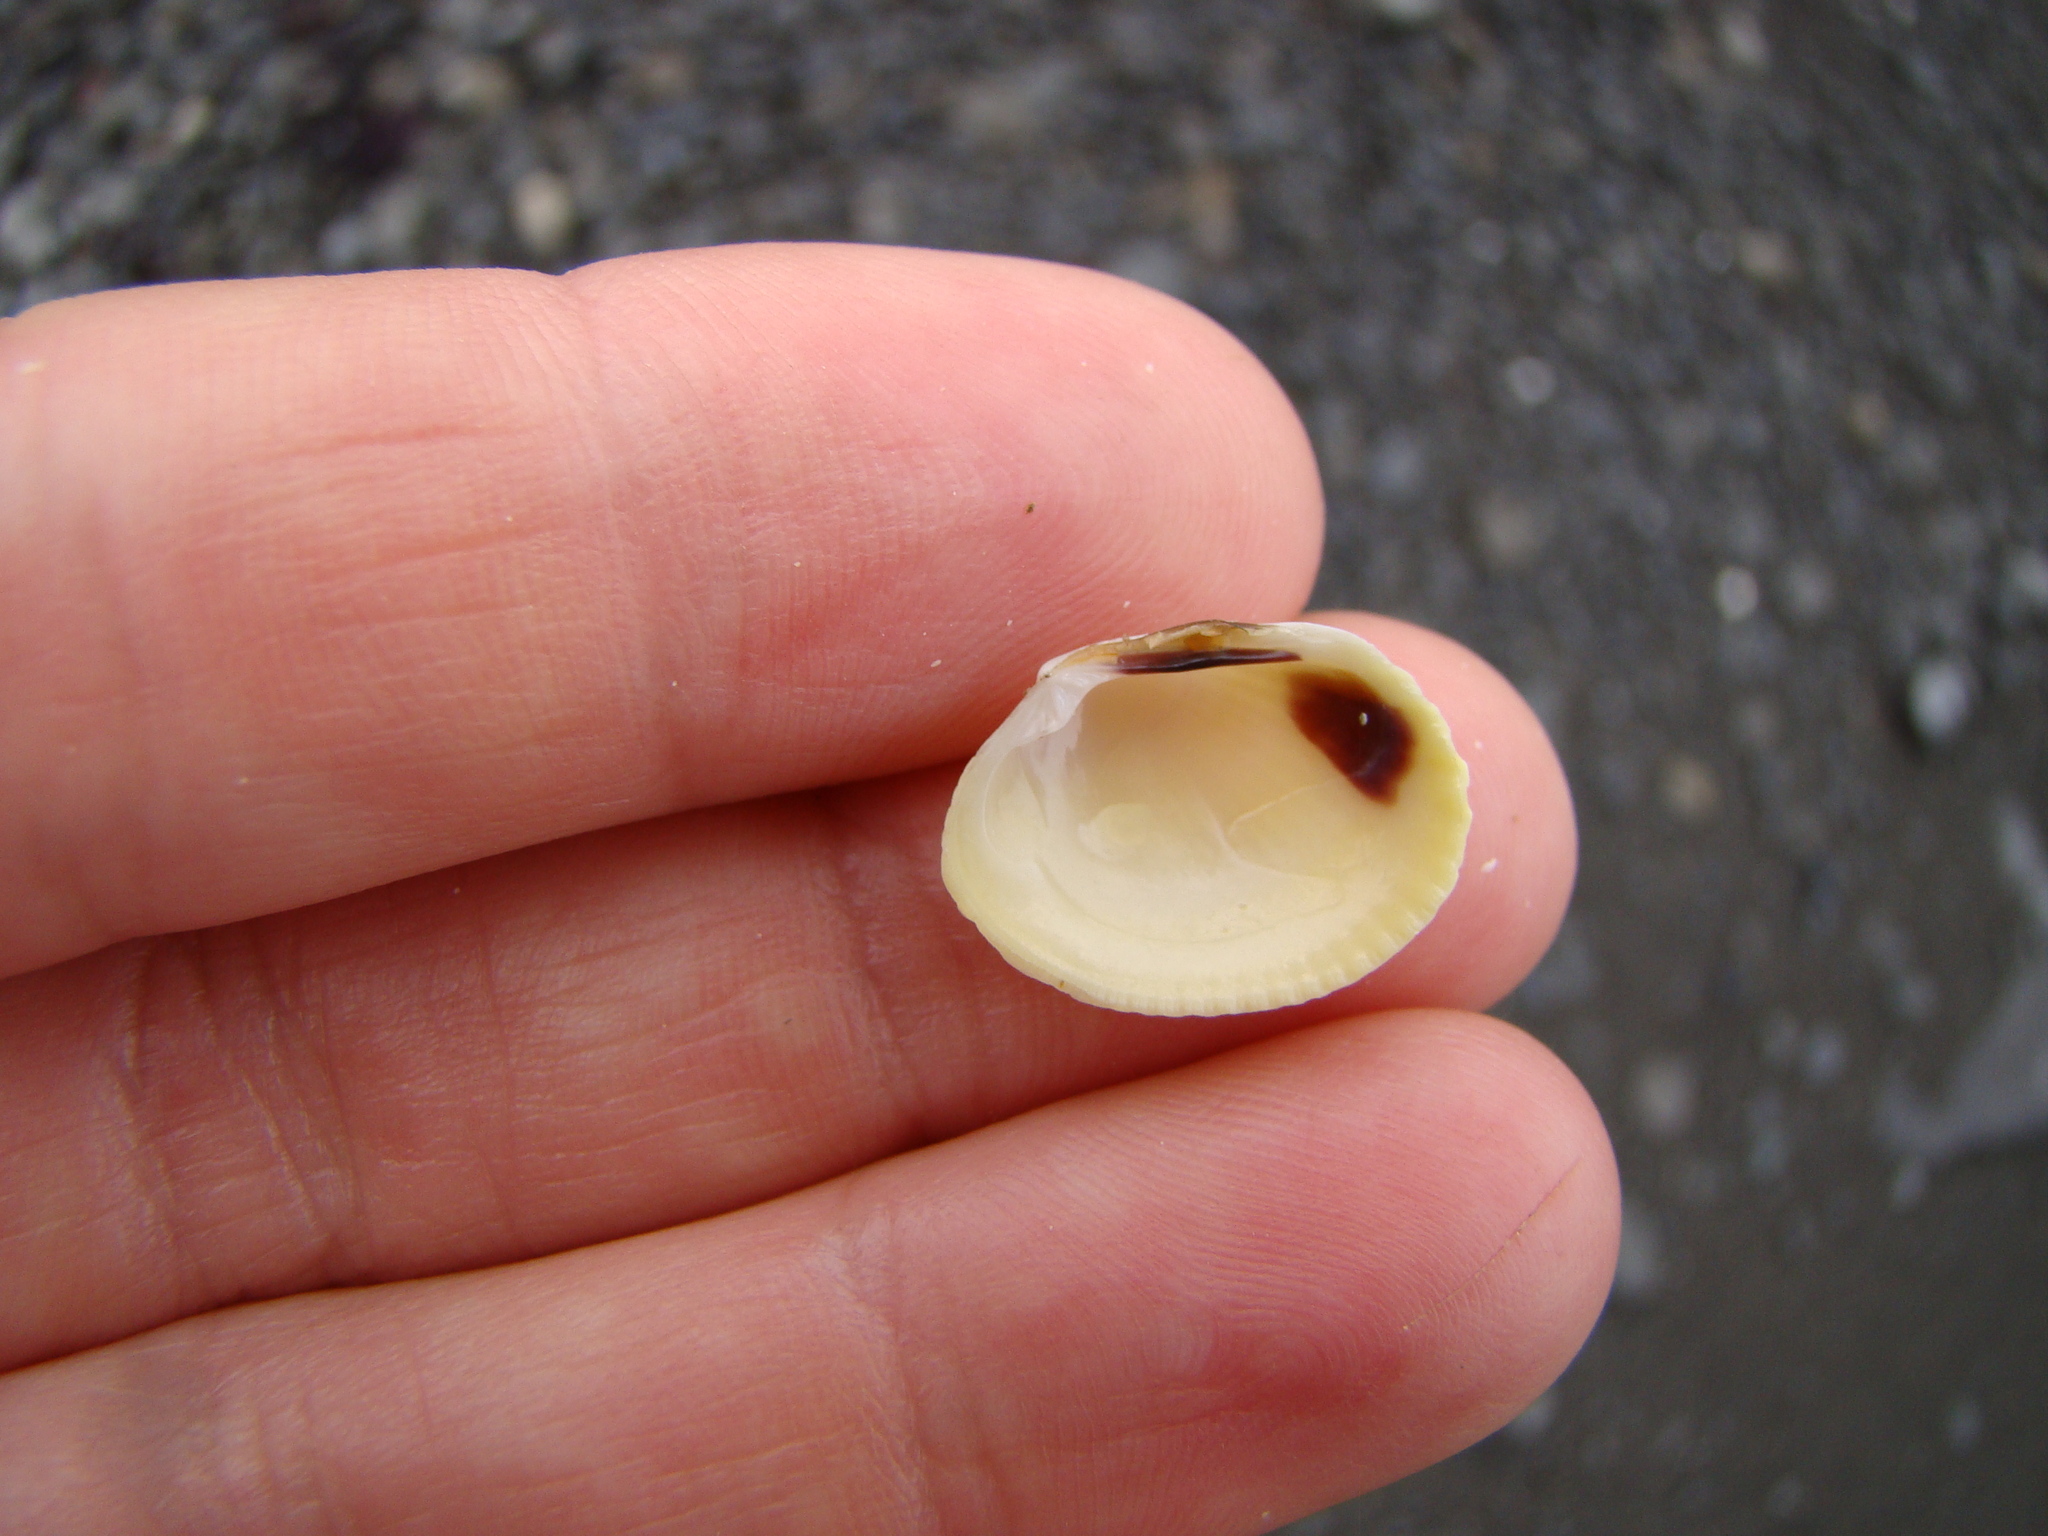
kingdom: Animalia
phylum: Mollusca
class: Bivalvia
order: Venerida
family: Veneridae
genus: Leukoma
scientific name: Leukoma crassicosta
